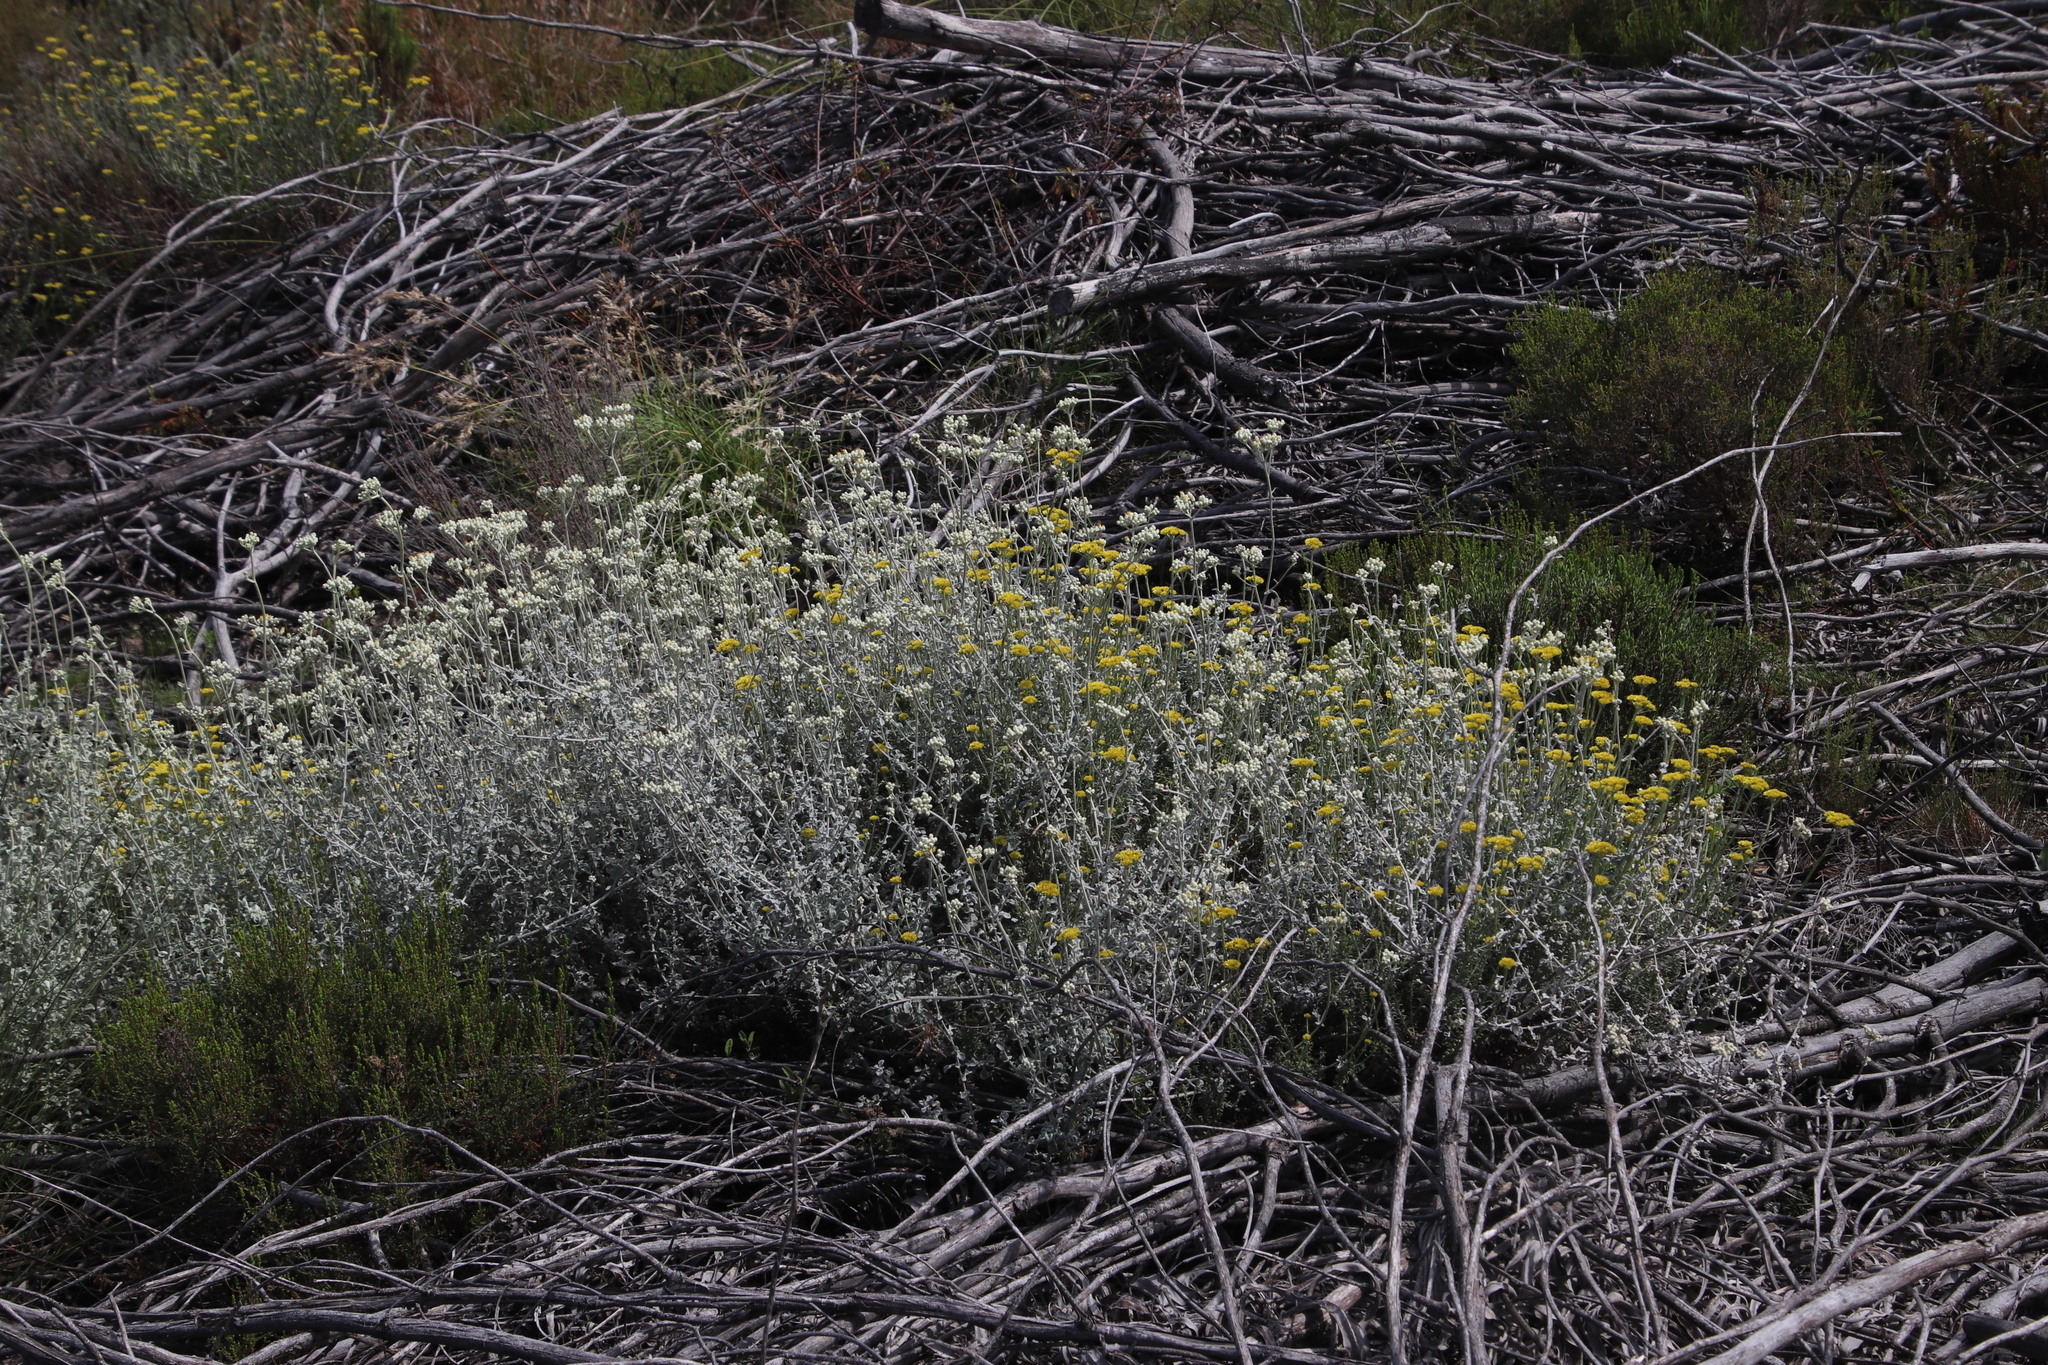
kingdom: Plantae
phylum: Tracheophyta
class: Magnoliopsida
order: Asterales
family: Asteraceae
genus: Helichrysum
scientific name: Helichrysum cymosum
